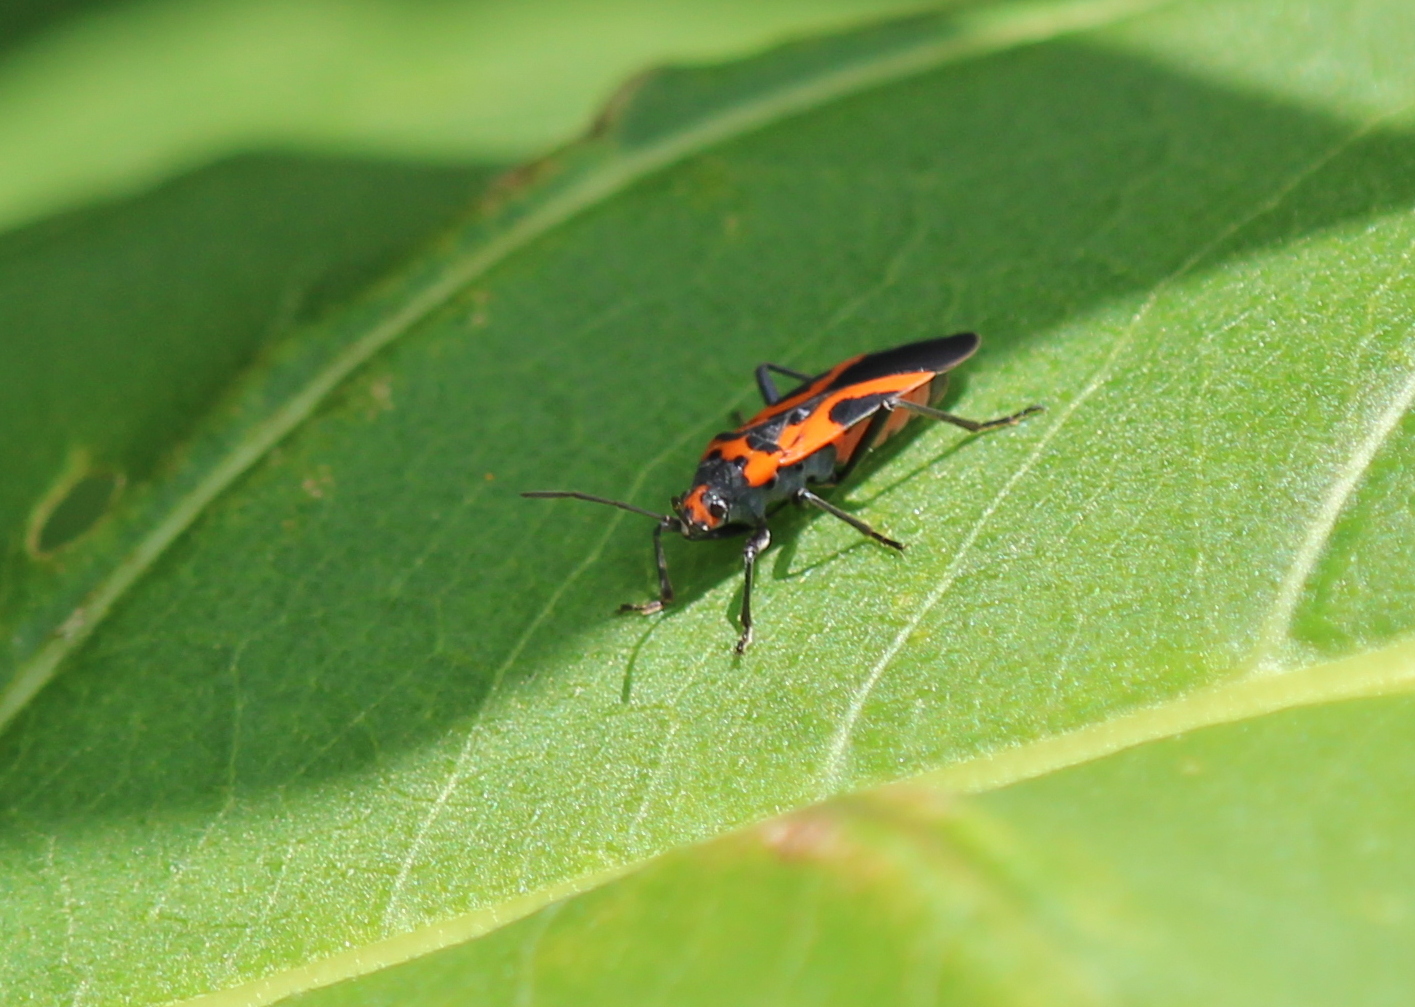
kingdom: Animalia
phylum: Arthropoda
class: Insecta
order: Hemiptera
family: Lygaeidae
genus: Lygaeus
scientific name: Lygaeus turcicus
